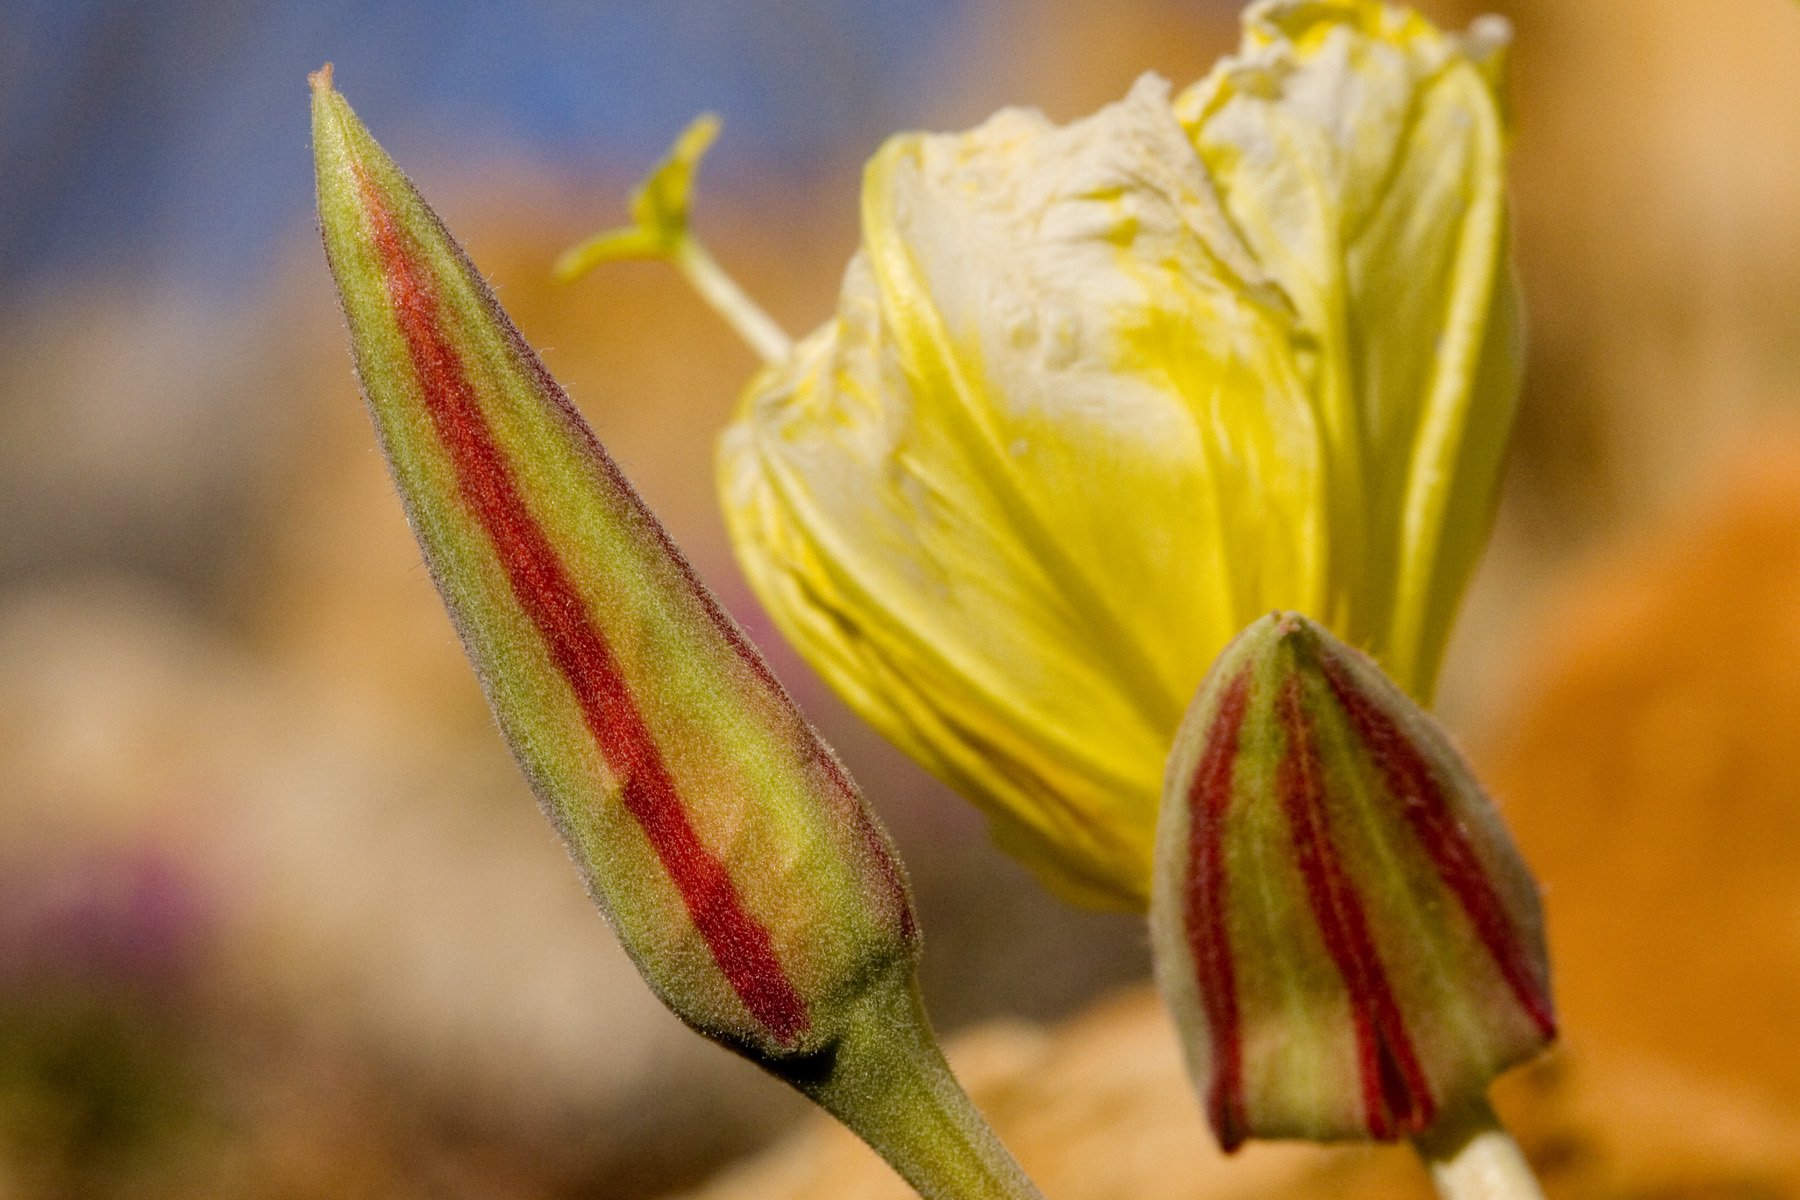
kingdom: Plantae
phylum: Tracheophyta
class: Magnoliopsida
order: Myrtales
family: Onagraceae
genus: Oenothera
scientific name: Oenothera brachycarpa
